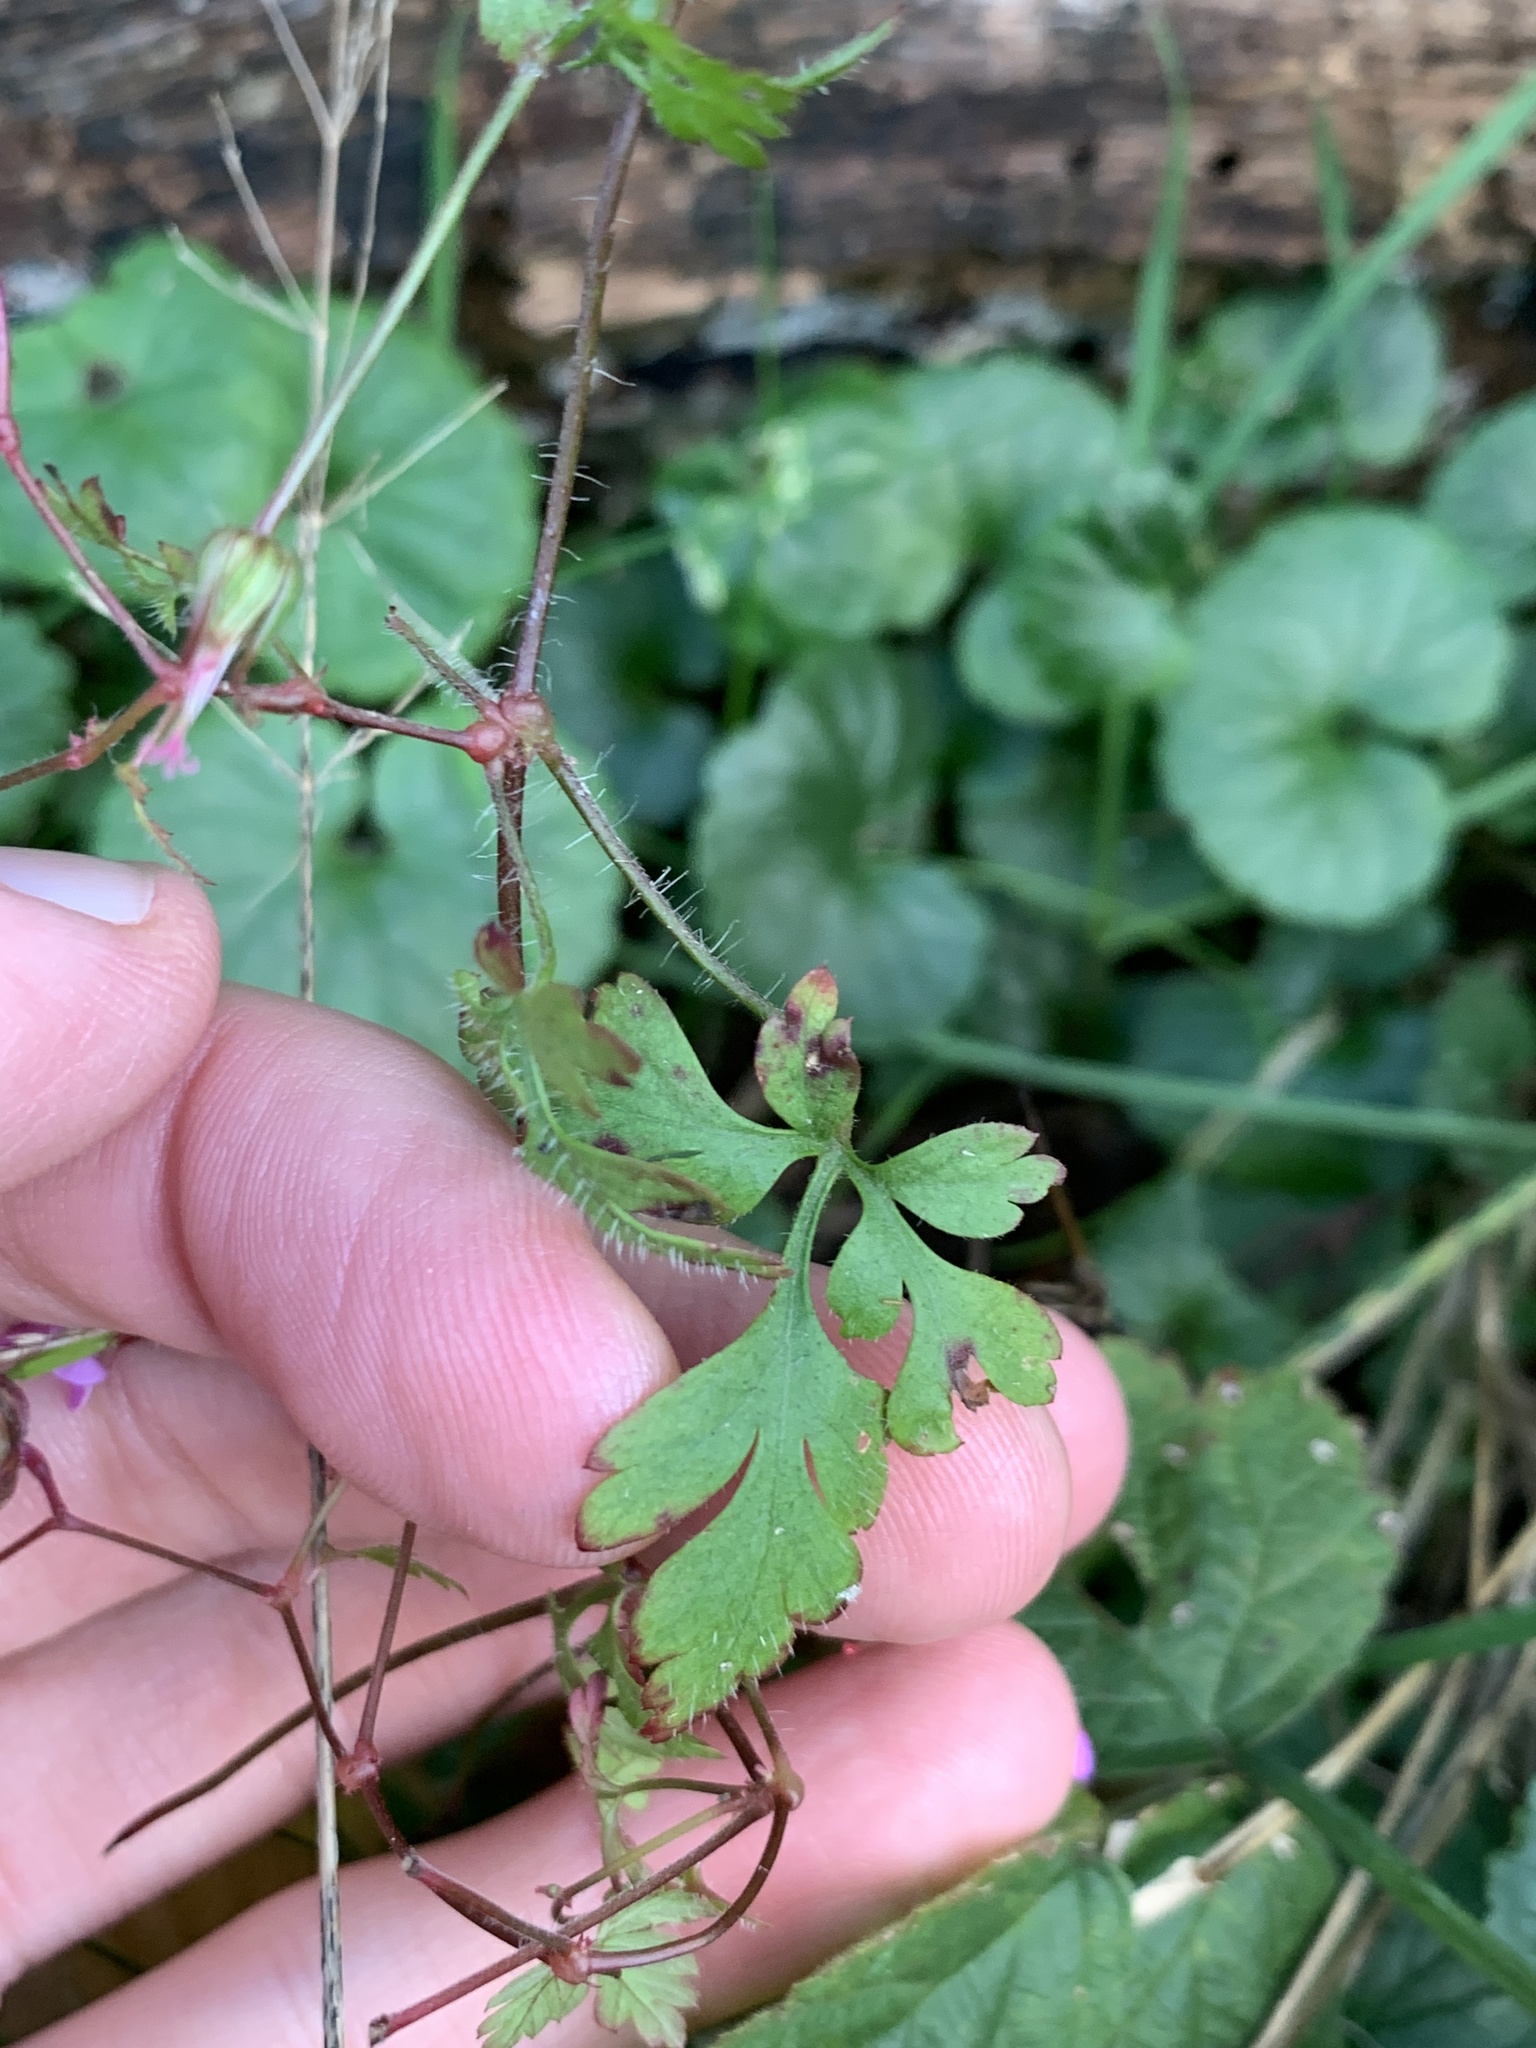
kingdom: Plantae
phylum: Tracheophyta
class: Magnoliopsida
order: Geraniales
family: Geraniaceae
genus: Geranium
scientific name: Geranium robertianum
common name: Herb-robert
